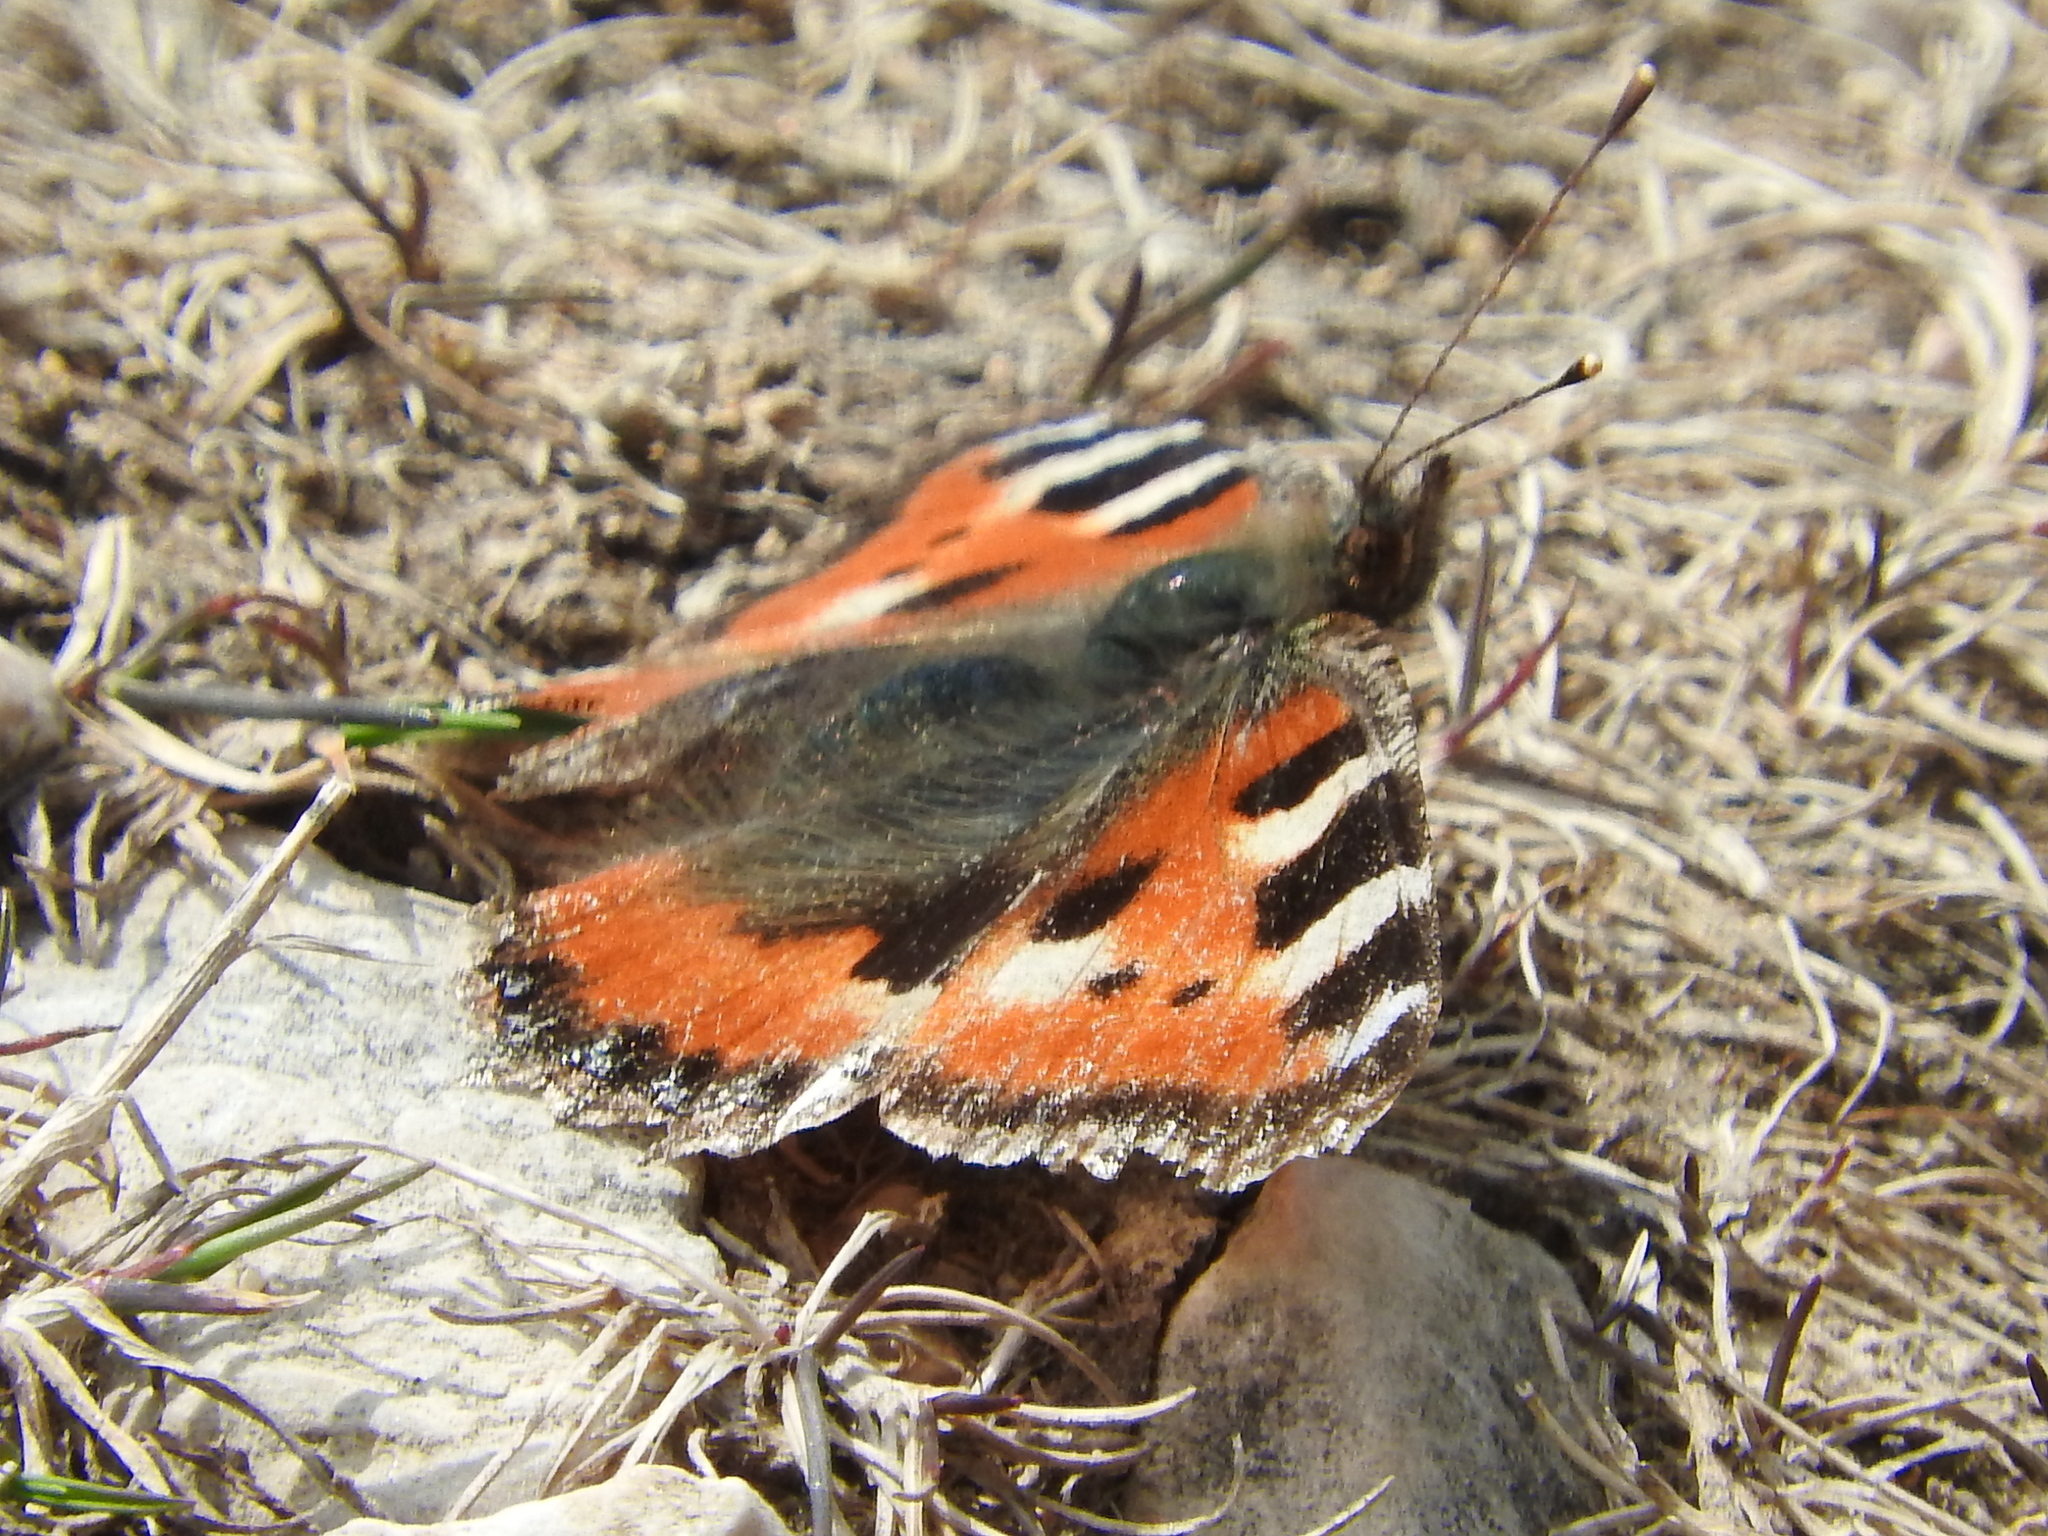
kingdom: Animalia
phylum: Arthropoda
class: Insecta
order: Lepidoptera
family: Nymphalidae
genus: Aglais
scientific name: Aglais urticae
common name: Small tortoiseshell
